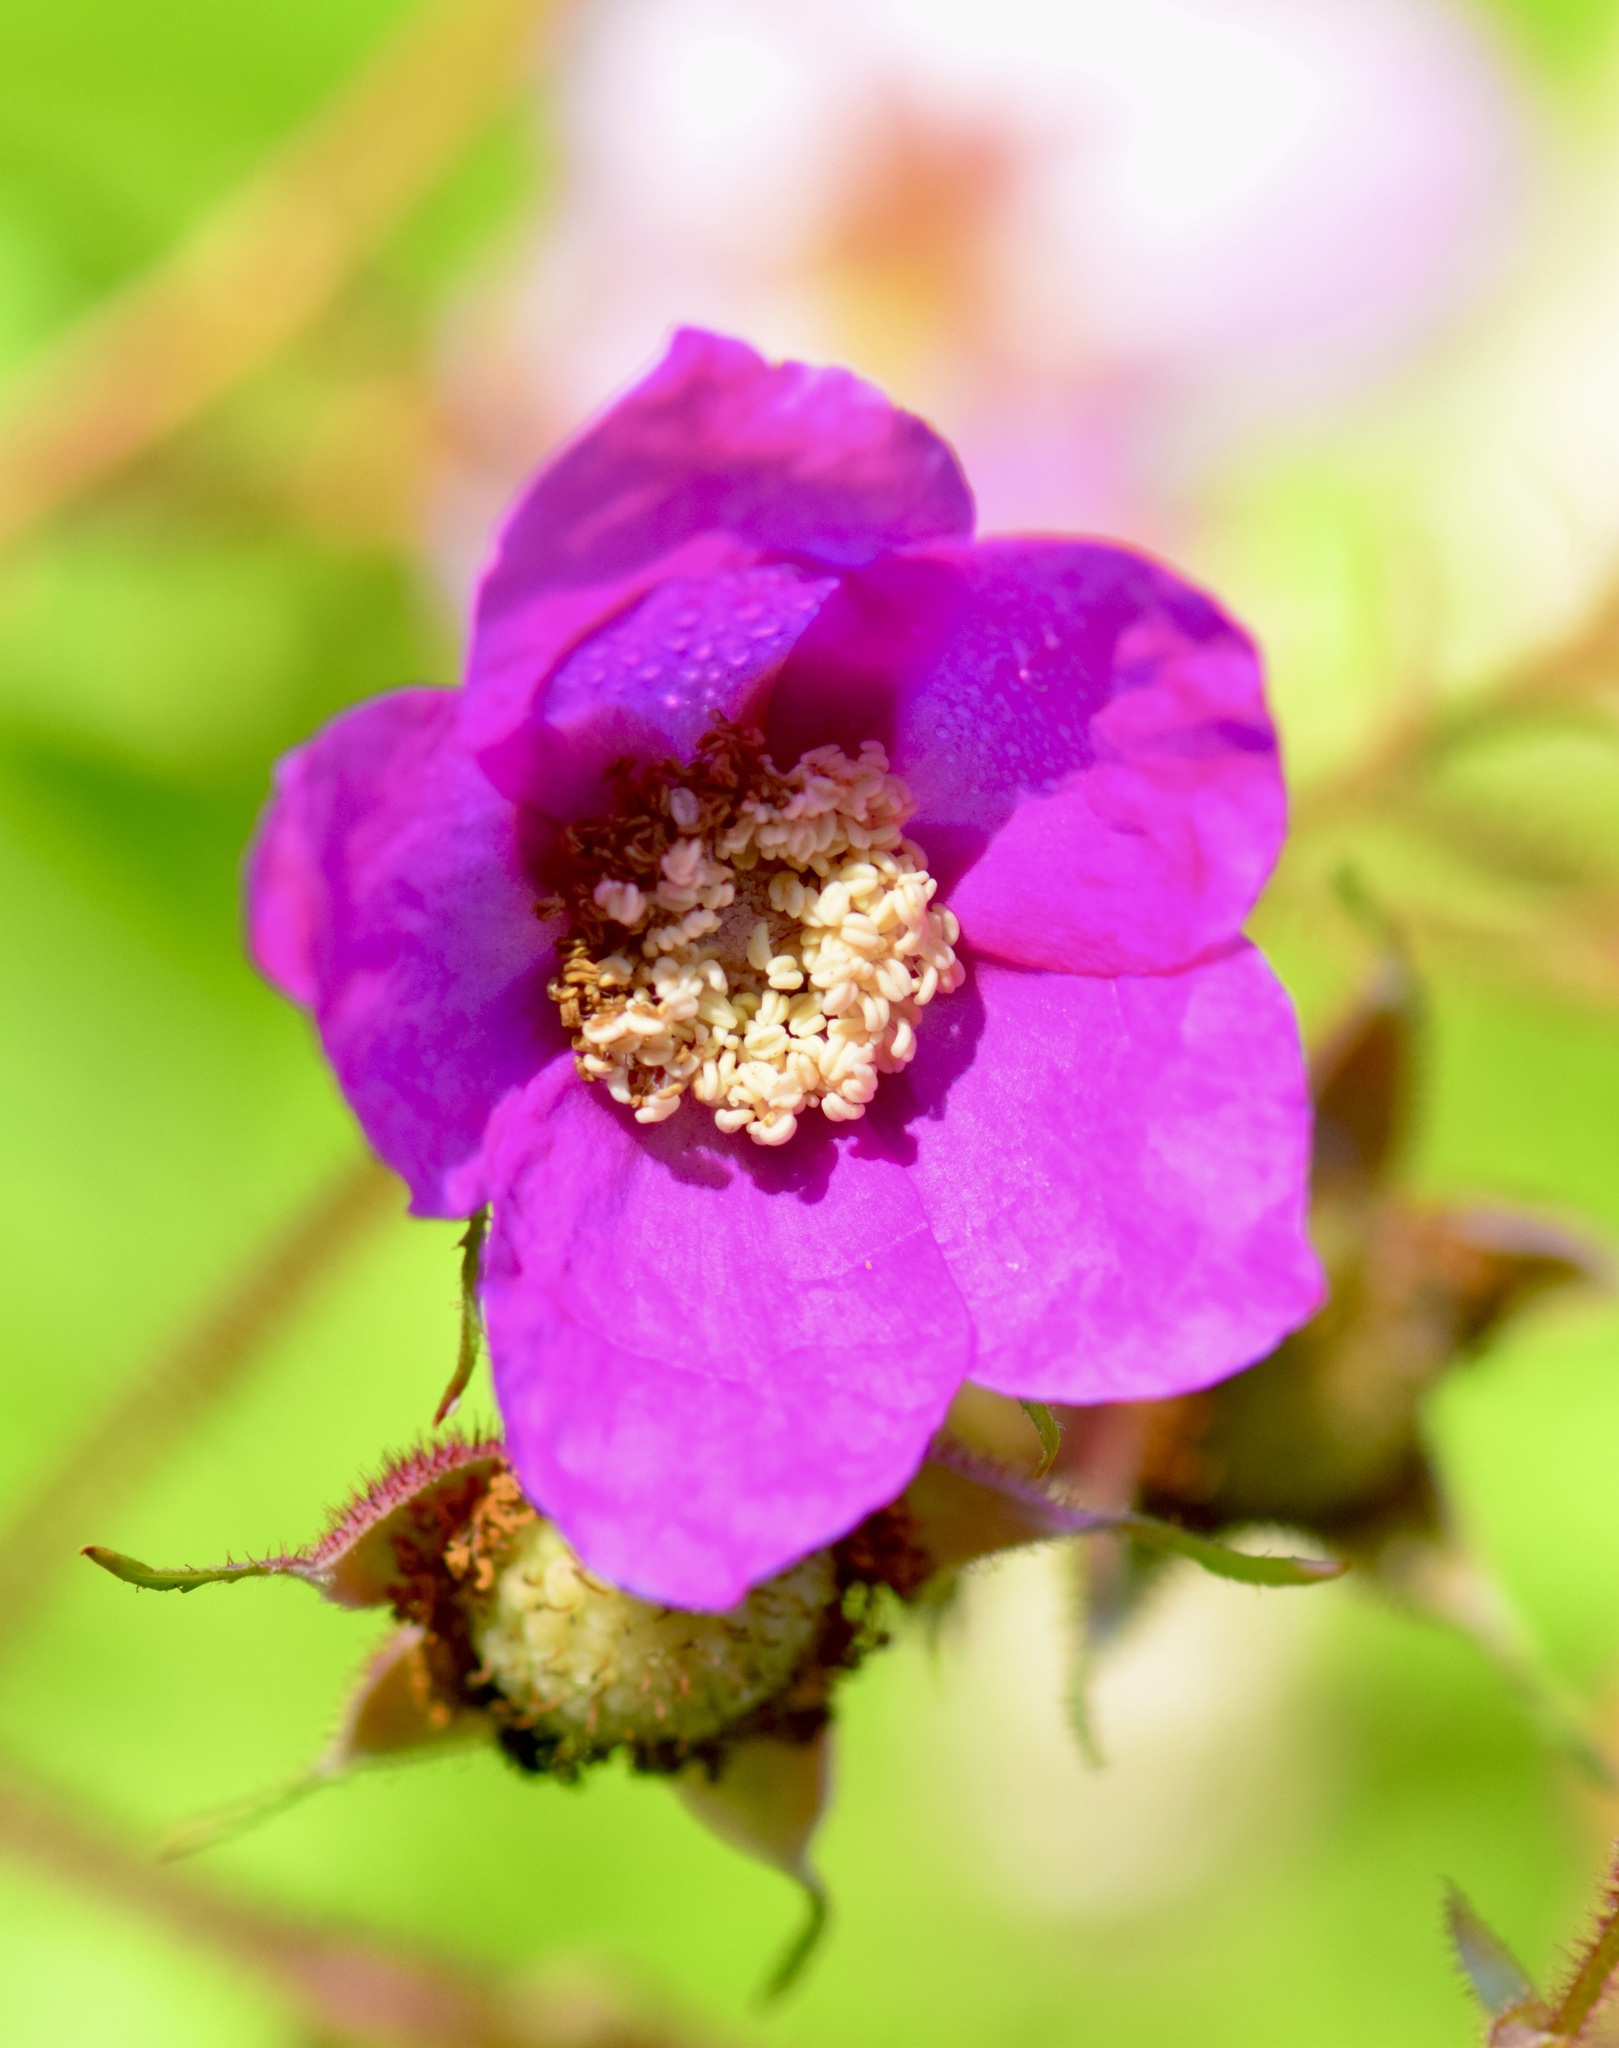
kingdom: Plantae
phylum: Tracheophyta
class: Magnoliopsida
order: Rosales
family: Rosaceae
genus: Rubus
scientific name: Rubus odoratus
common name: Purple-flowered raspberry
